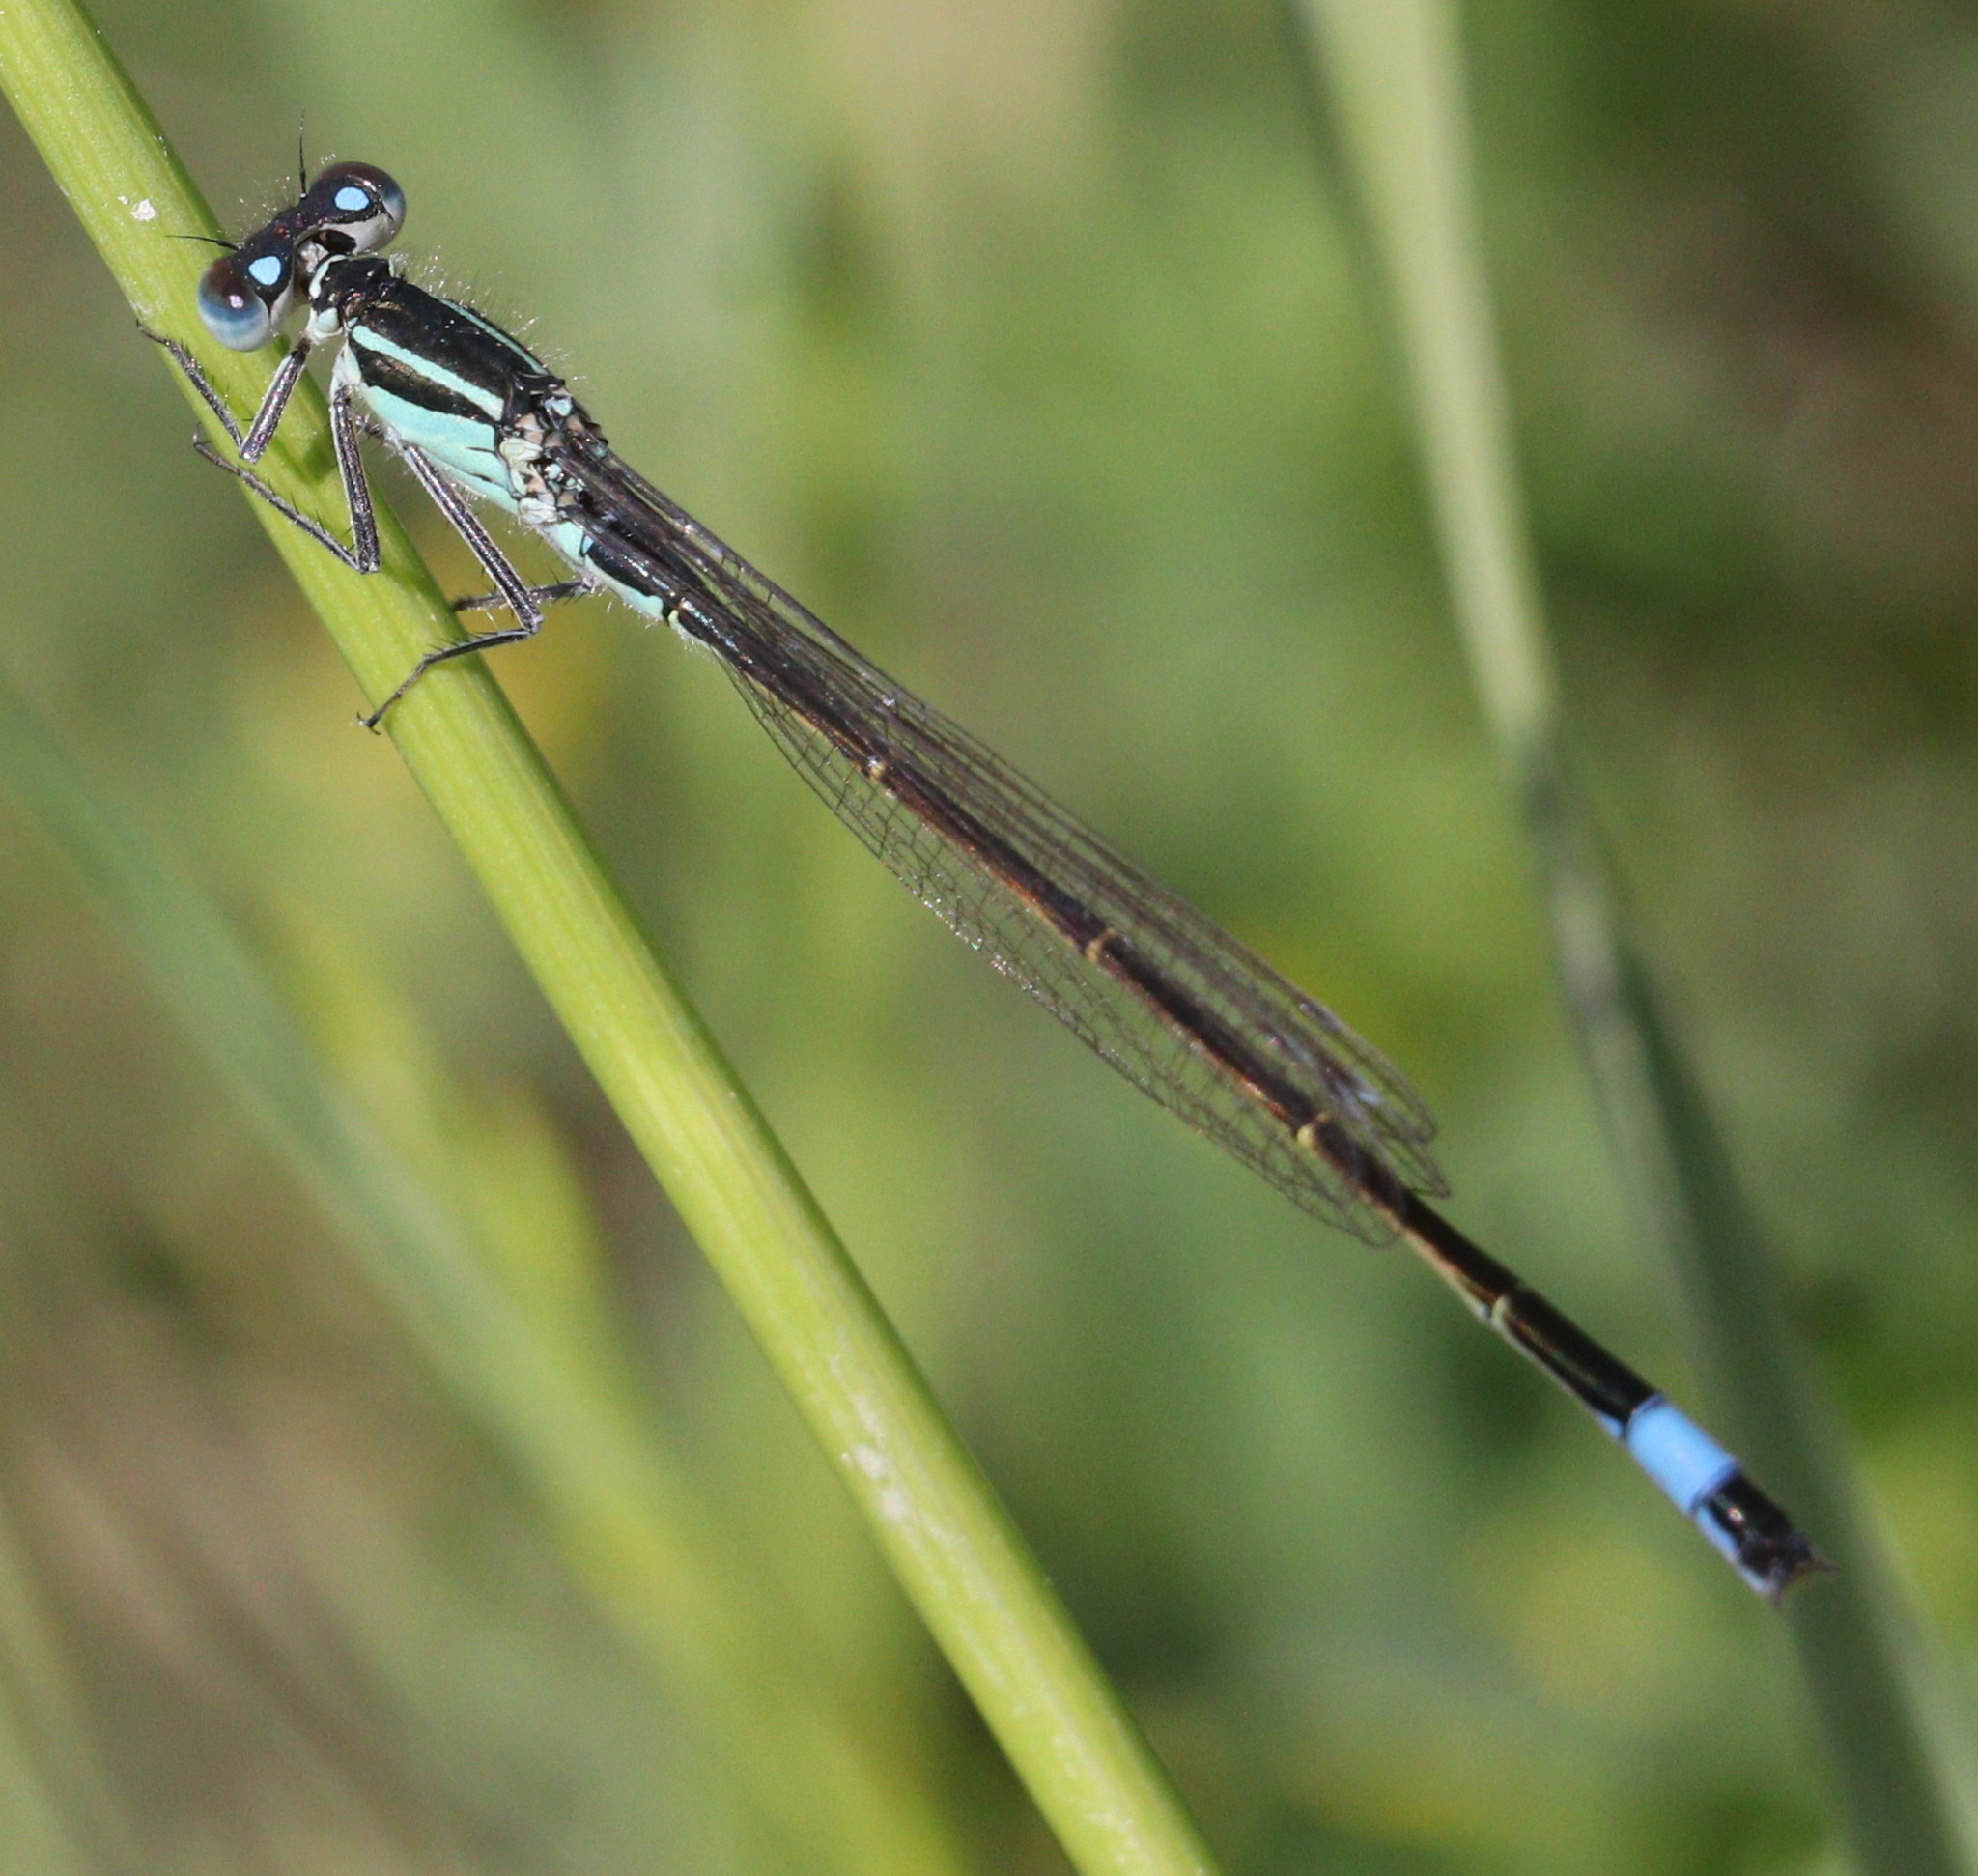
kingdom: Animalia
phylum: Arthropoda
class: Insecta
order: Odonata
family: Coenagrionidae
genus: Ischnura
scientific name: Ischnura elegans
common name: Blue-tailed damselfly
